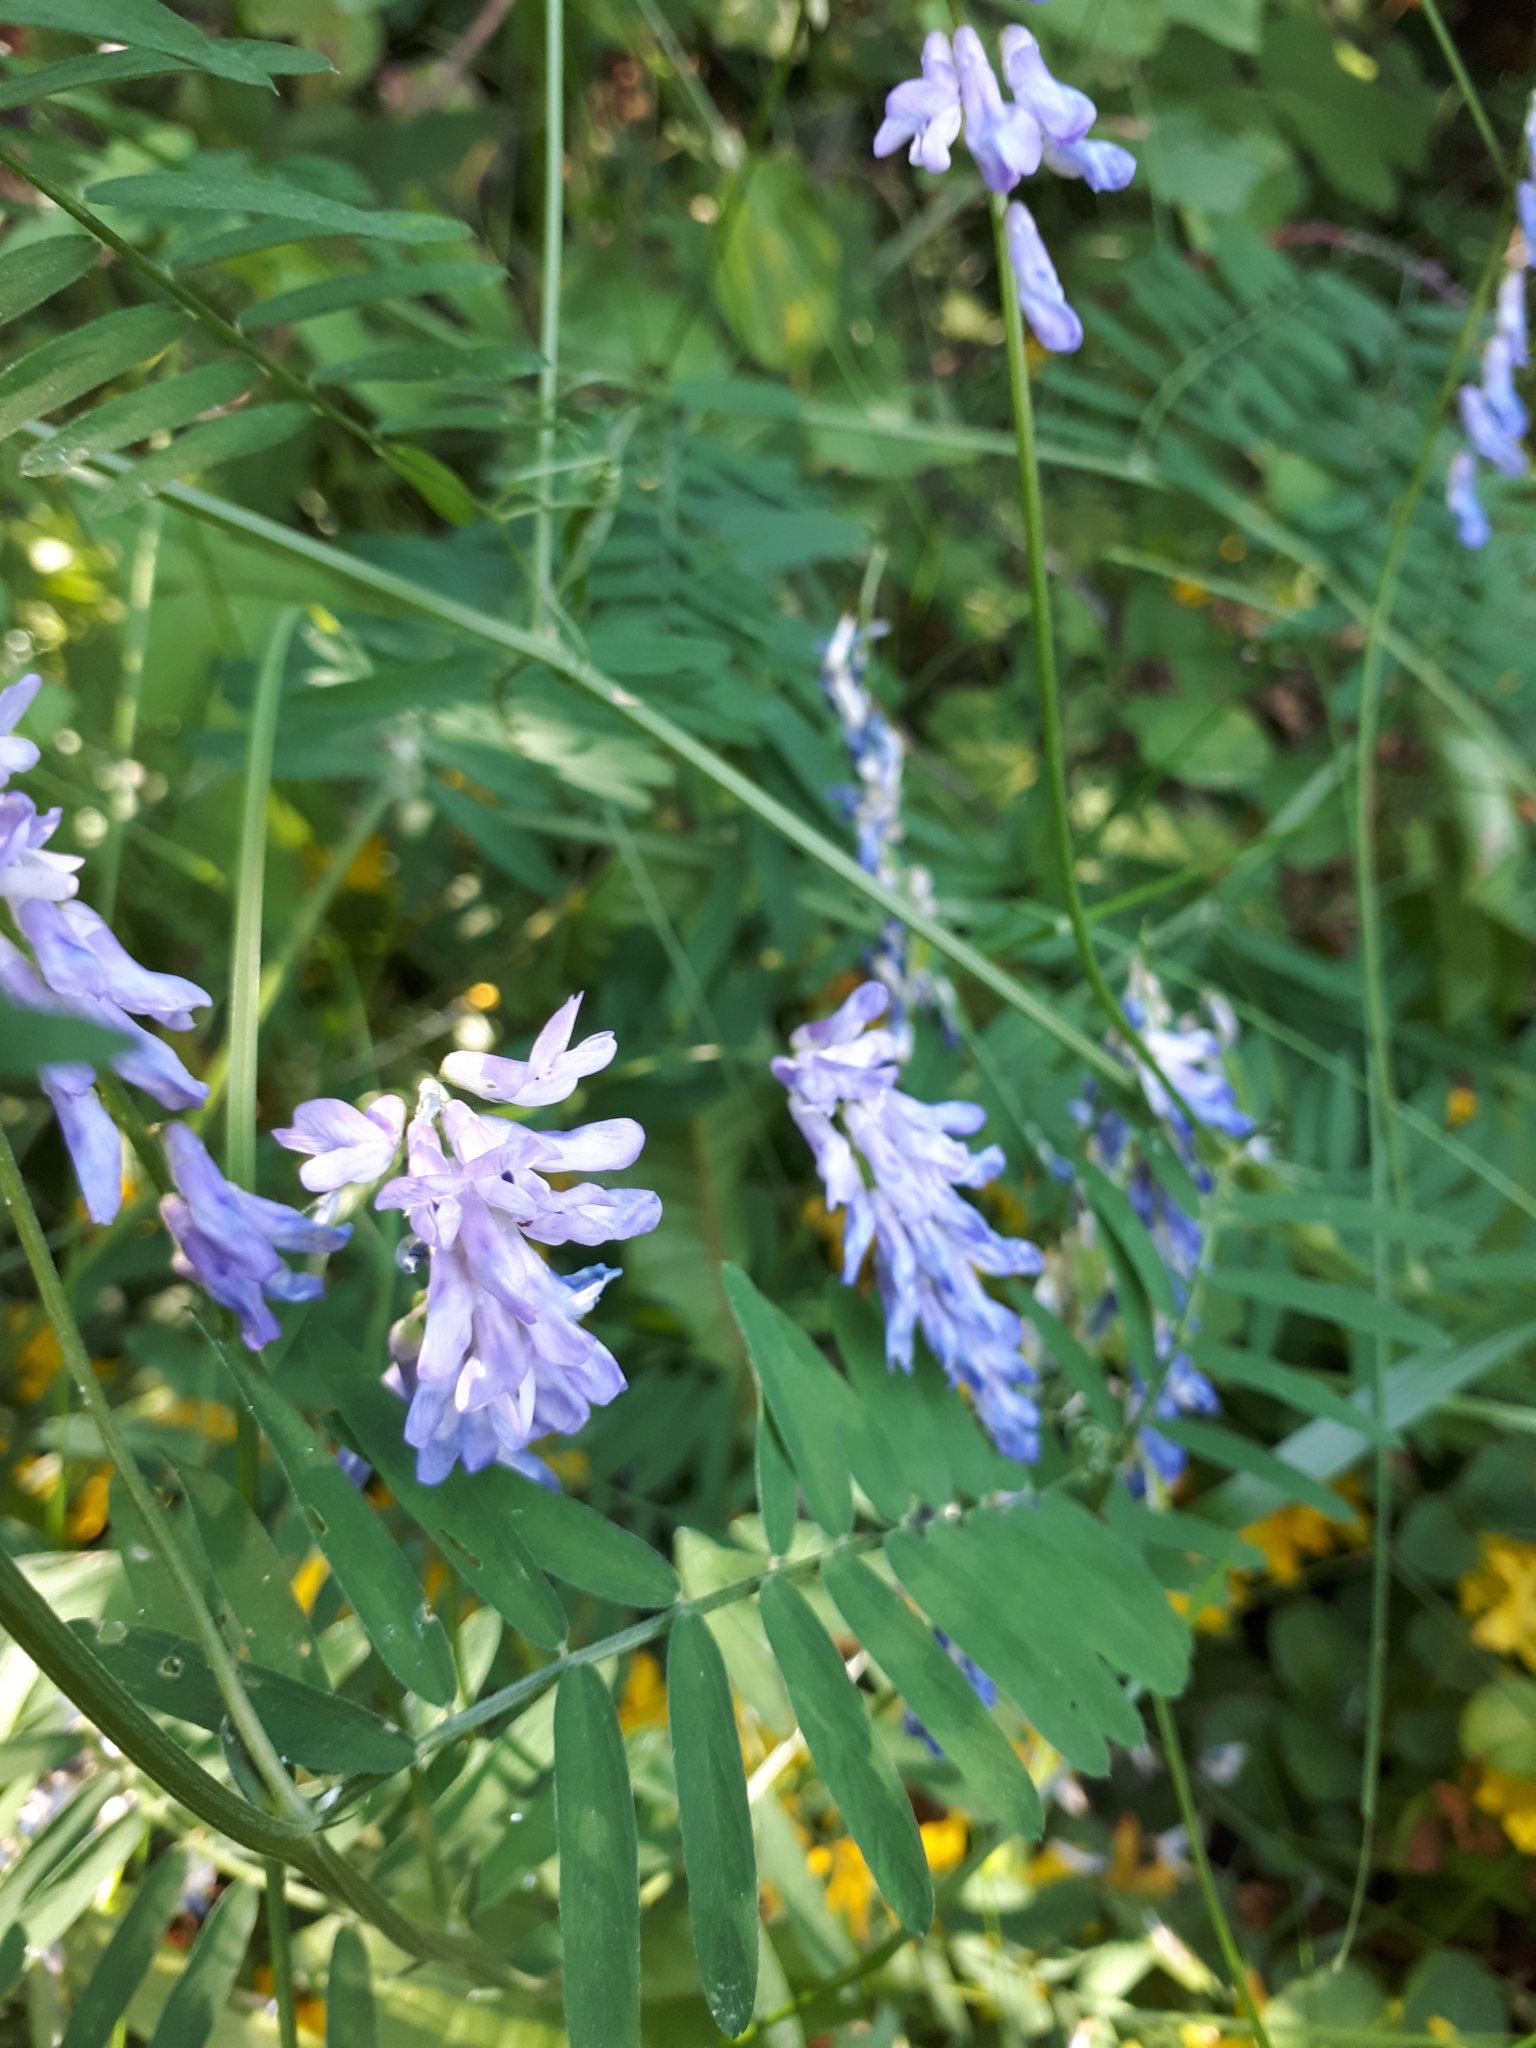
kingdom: Plantae
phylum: Tracheophyta
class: Magnoliopsida
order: Fabales
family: Fabaceae
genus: Vicia
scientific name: Vicia cracca
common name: Bird vetch
